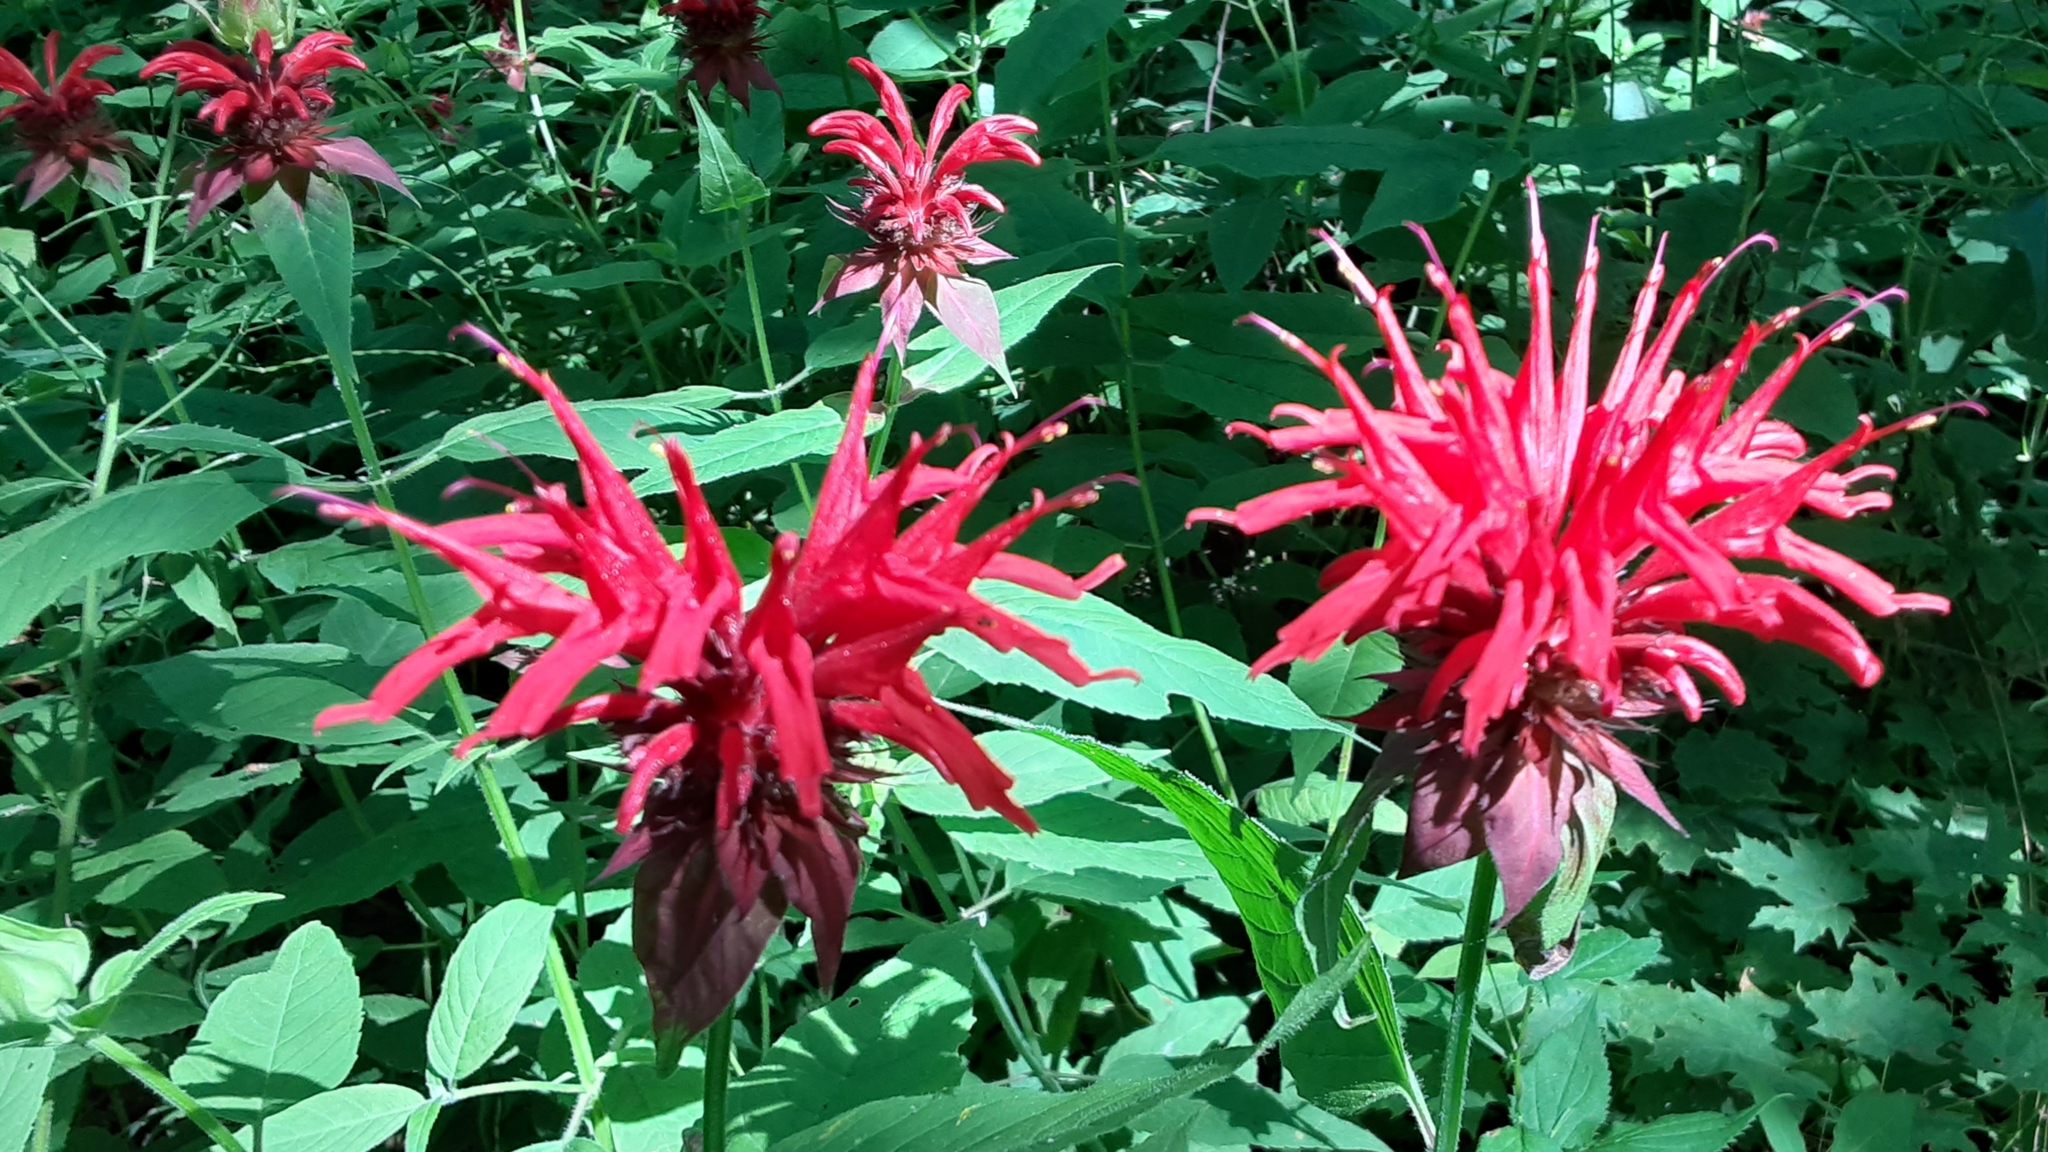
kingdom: Plantae
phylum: Tracheophyta
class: Magnoliopsida
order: Lamiales
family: Lamiaceae
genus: Monarda
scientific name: Monarda didyma
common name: Beebalm
